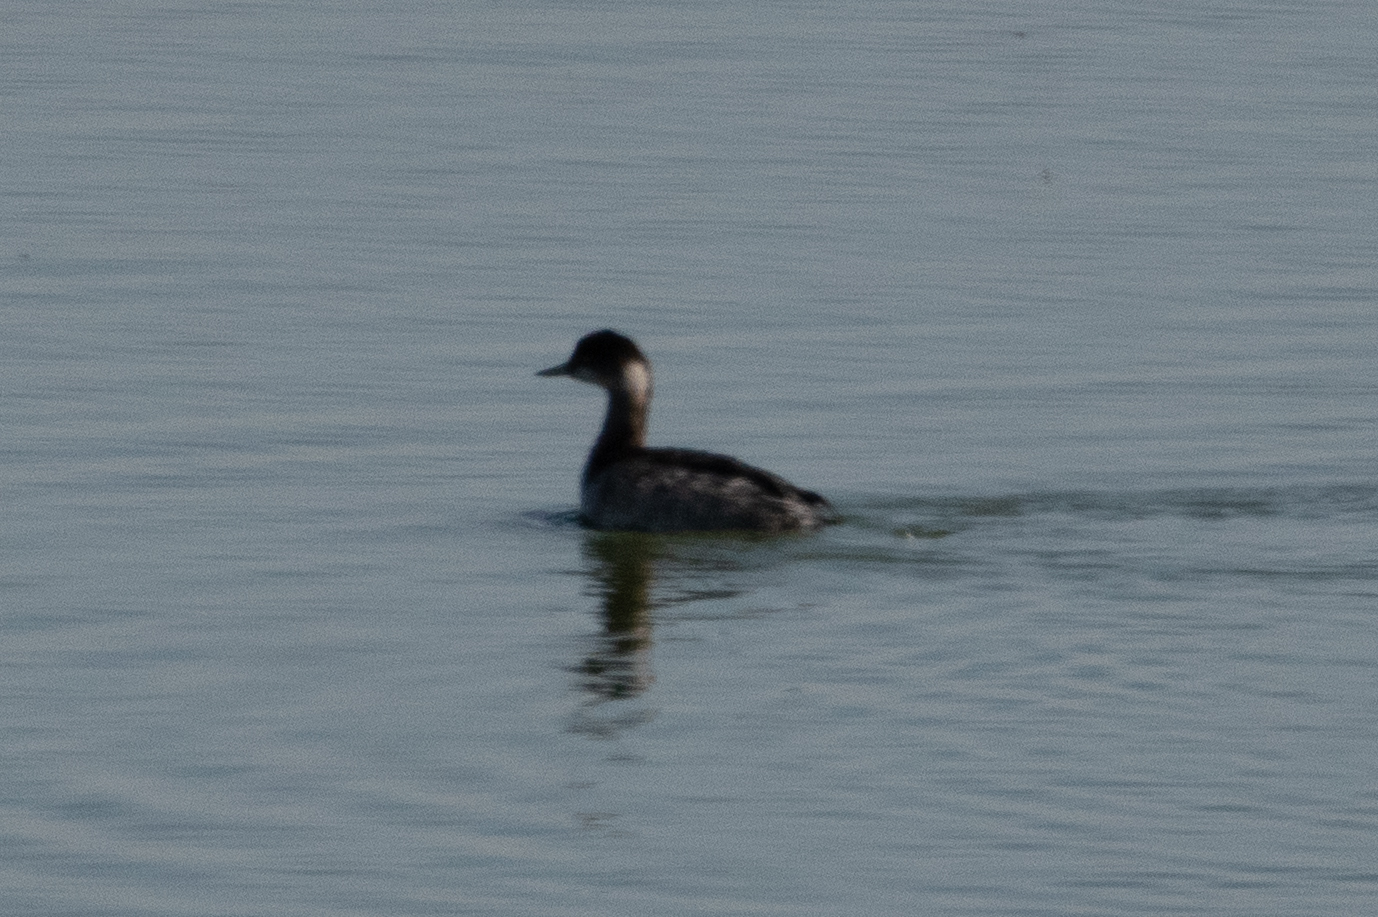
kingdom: Animalia
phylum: Chordata
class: Aves
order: Podicipediformes
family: Podicipedidae
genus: Podiceps
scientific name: Podiceps nigricollis
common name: Black-necked grebe
